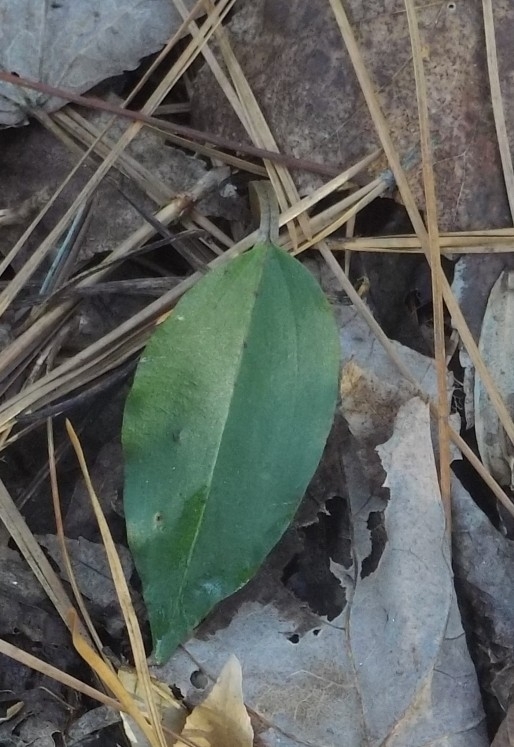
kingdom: Plantae
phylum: Tracheophyta
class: Liliopsida
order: Asparagales
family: Orchidaceae
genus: Tipularia
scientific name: Tipularia discolor
